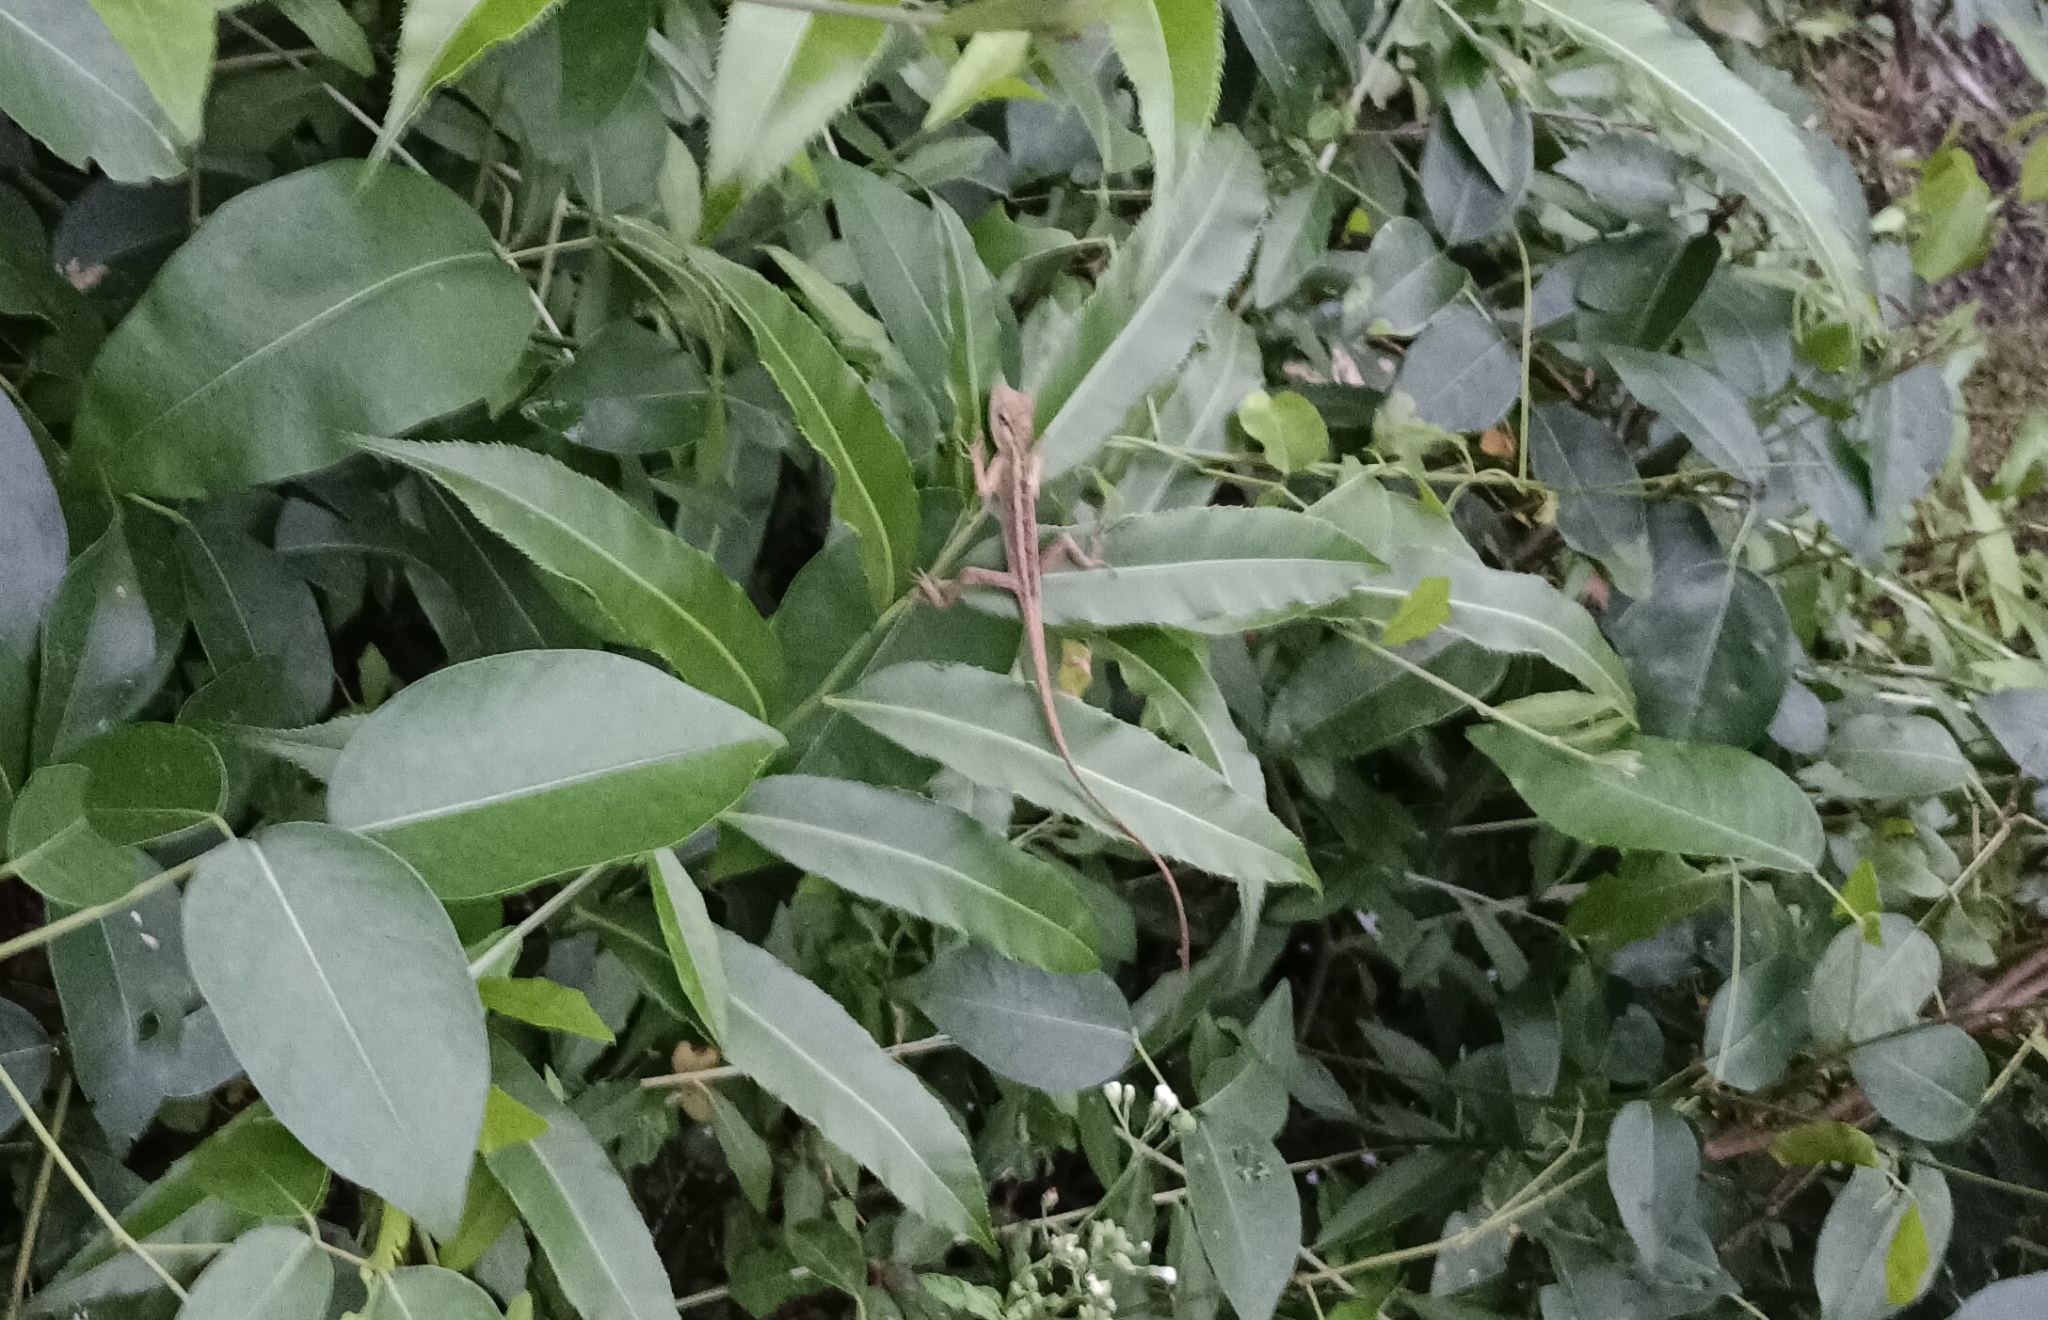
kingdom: Animalia
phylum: Chordata
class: Squamata
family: Agamidae
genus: Calotes
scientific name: Calotes versicolor
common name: Oriental garden lizard
